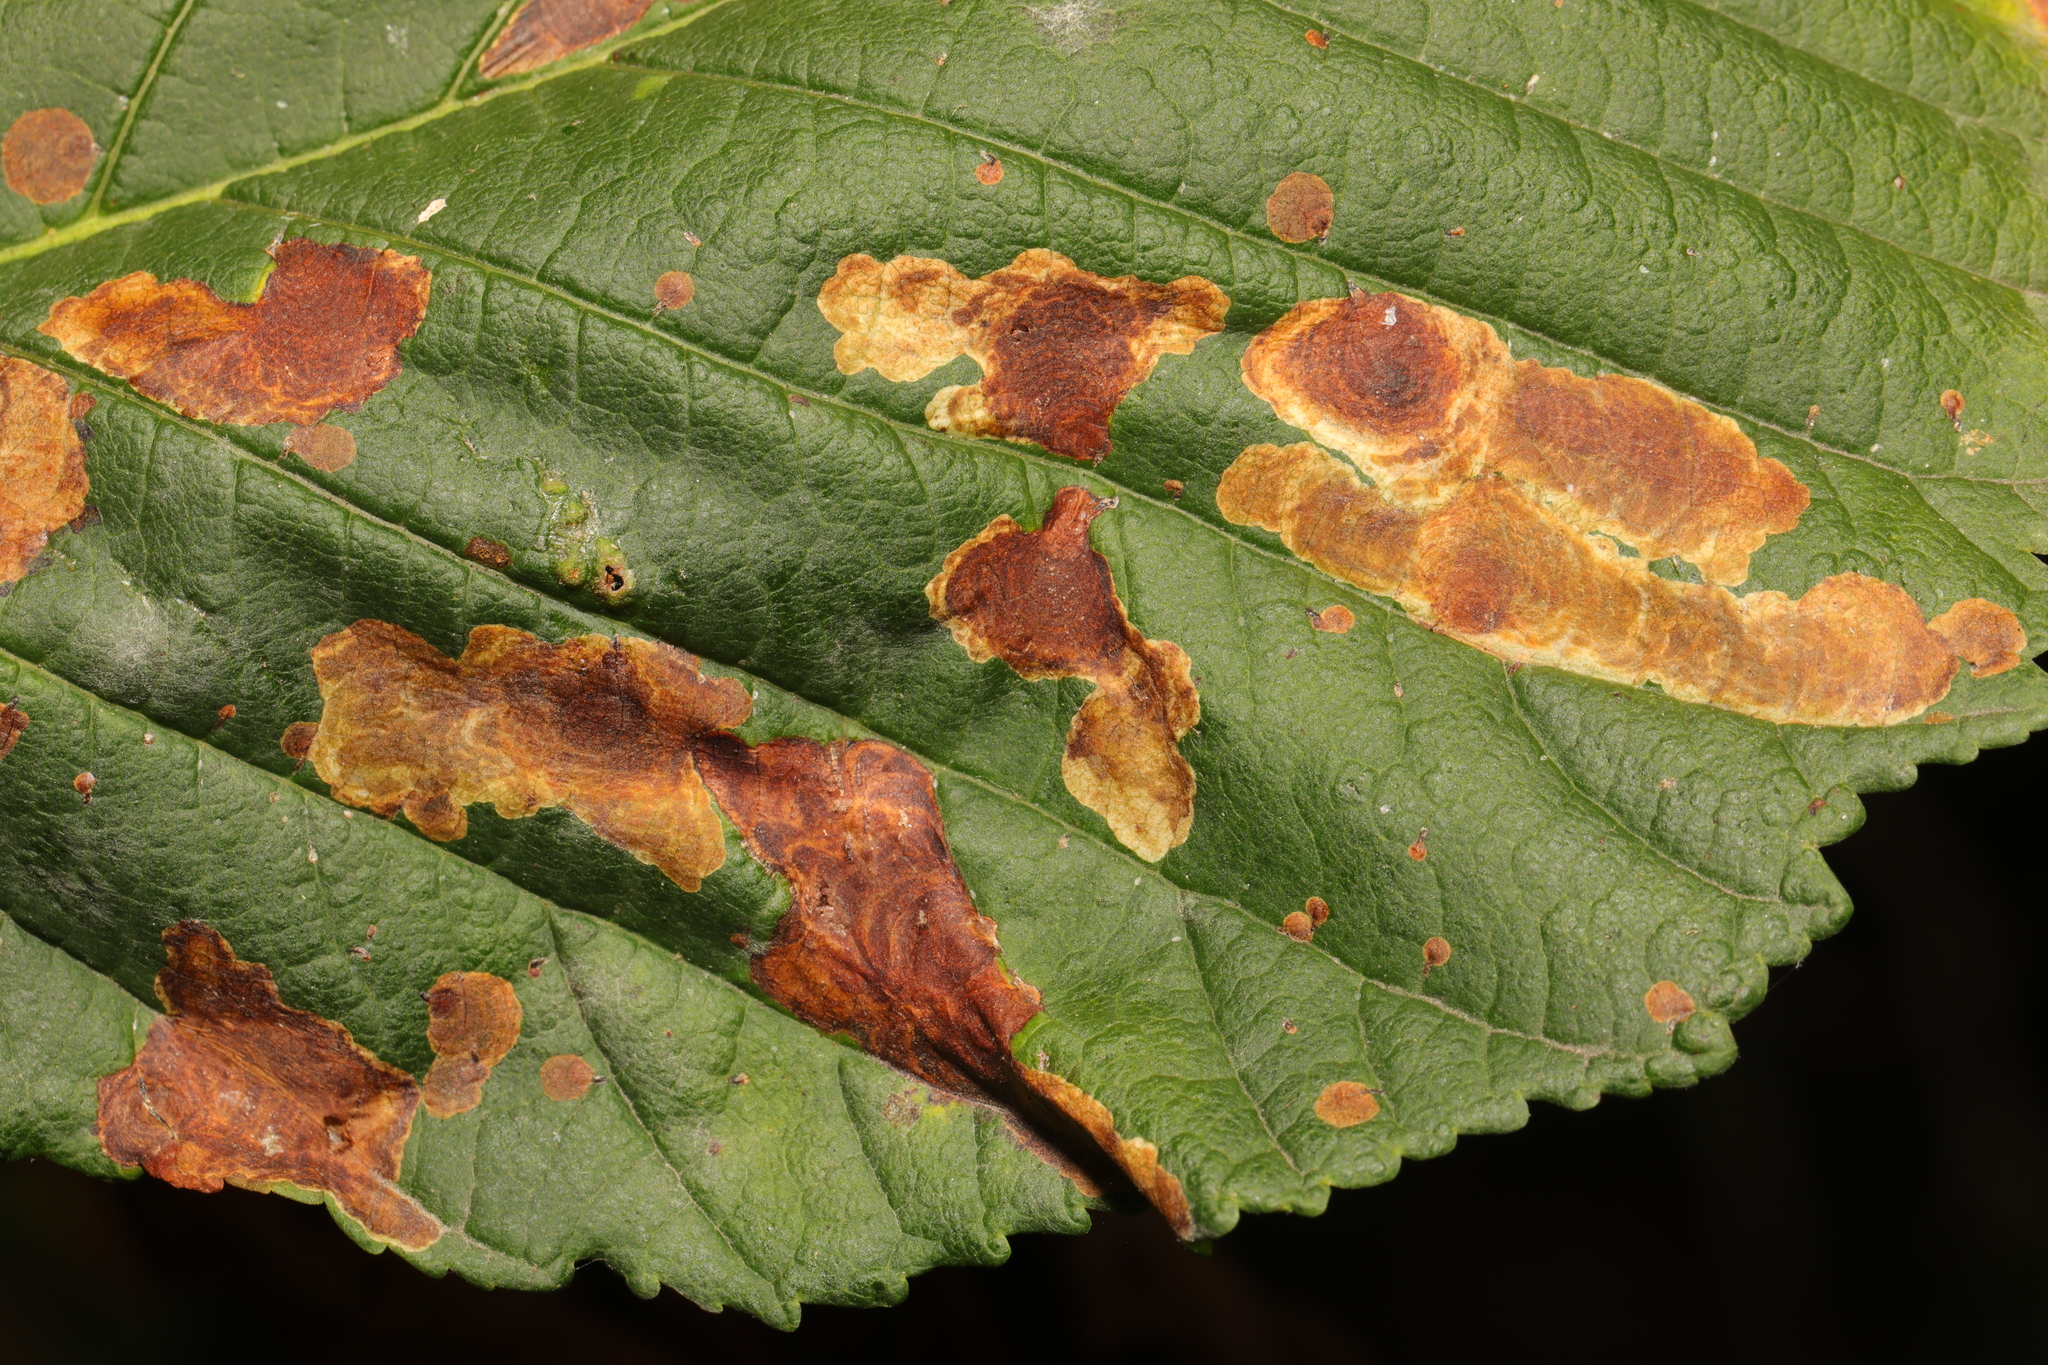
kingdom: Animalia
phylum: Arthropoda
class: Insecta
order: Lepidoptera
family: Gracillariidae
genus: Cameraria
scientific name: Cameraria ohridella
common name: Horse-chestnut leaf-miner
